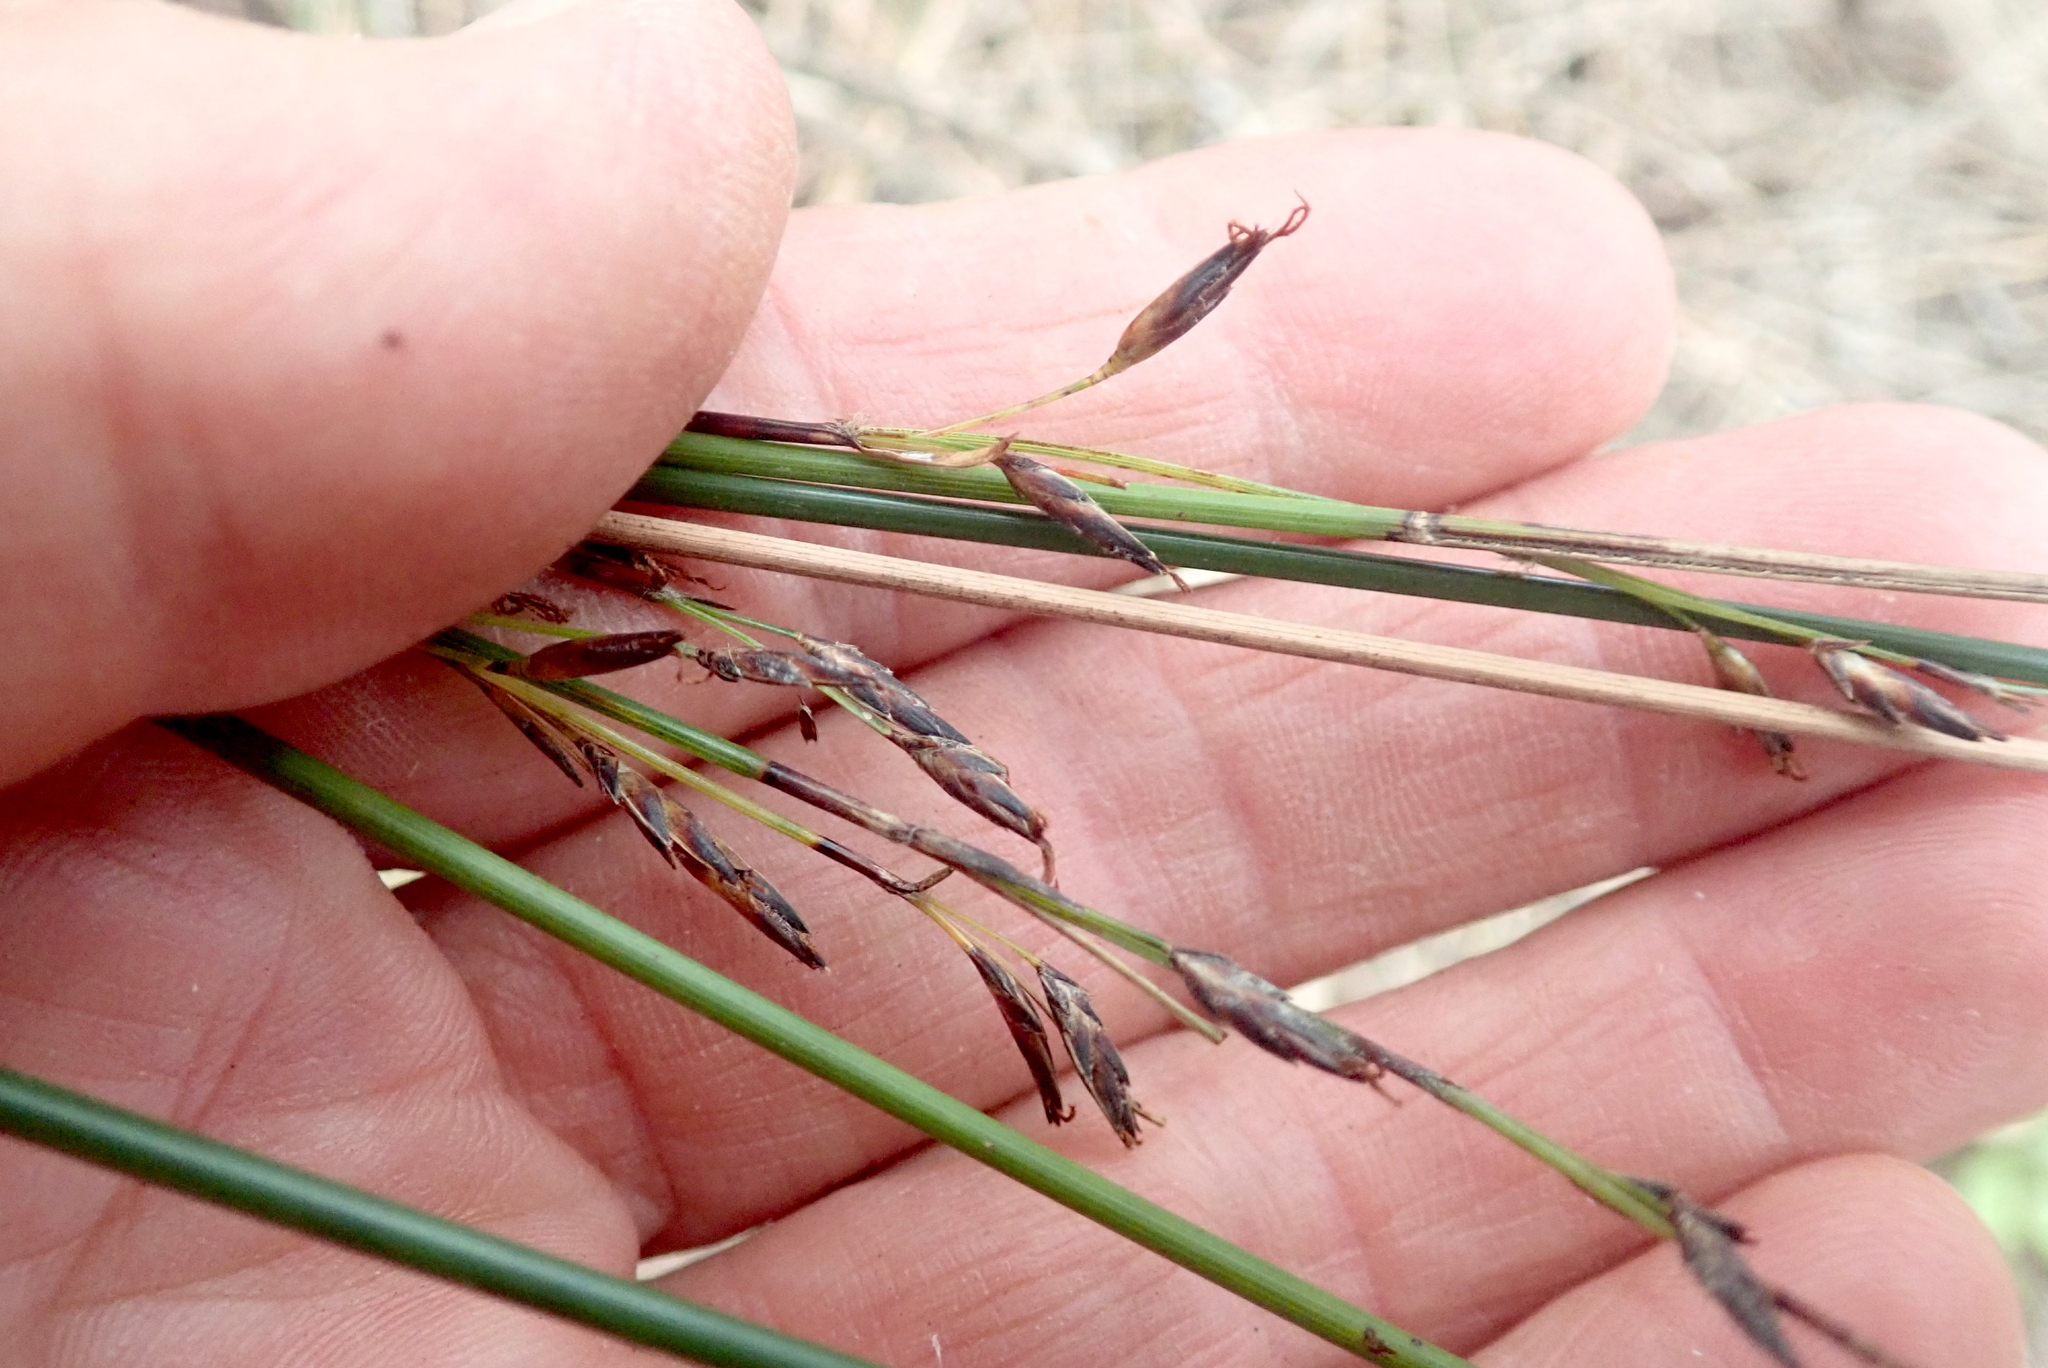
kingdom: Plantae
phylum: Tracheophyta
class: Liliopsida
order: Poales
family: Cyperaceae
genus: Schoenus
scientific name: Schoenus tendo
